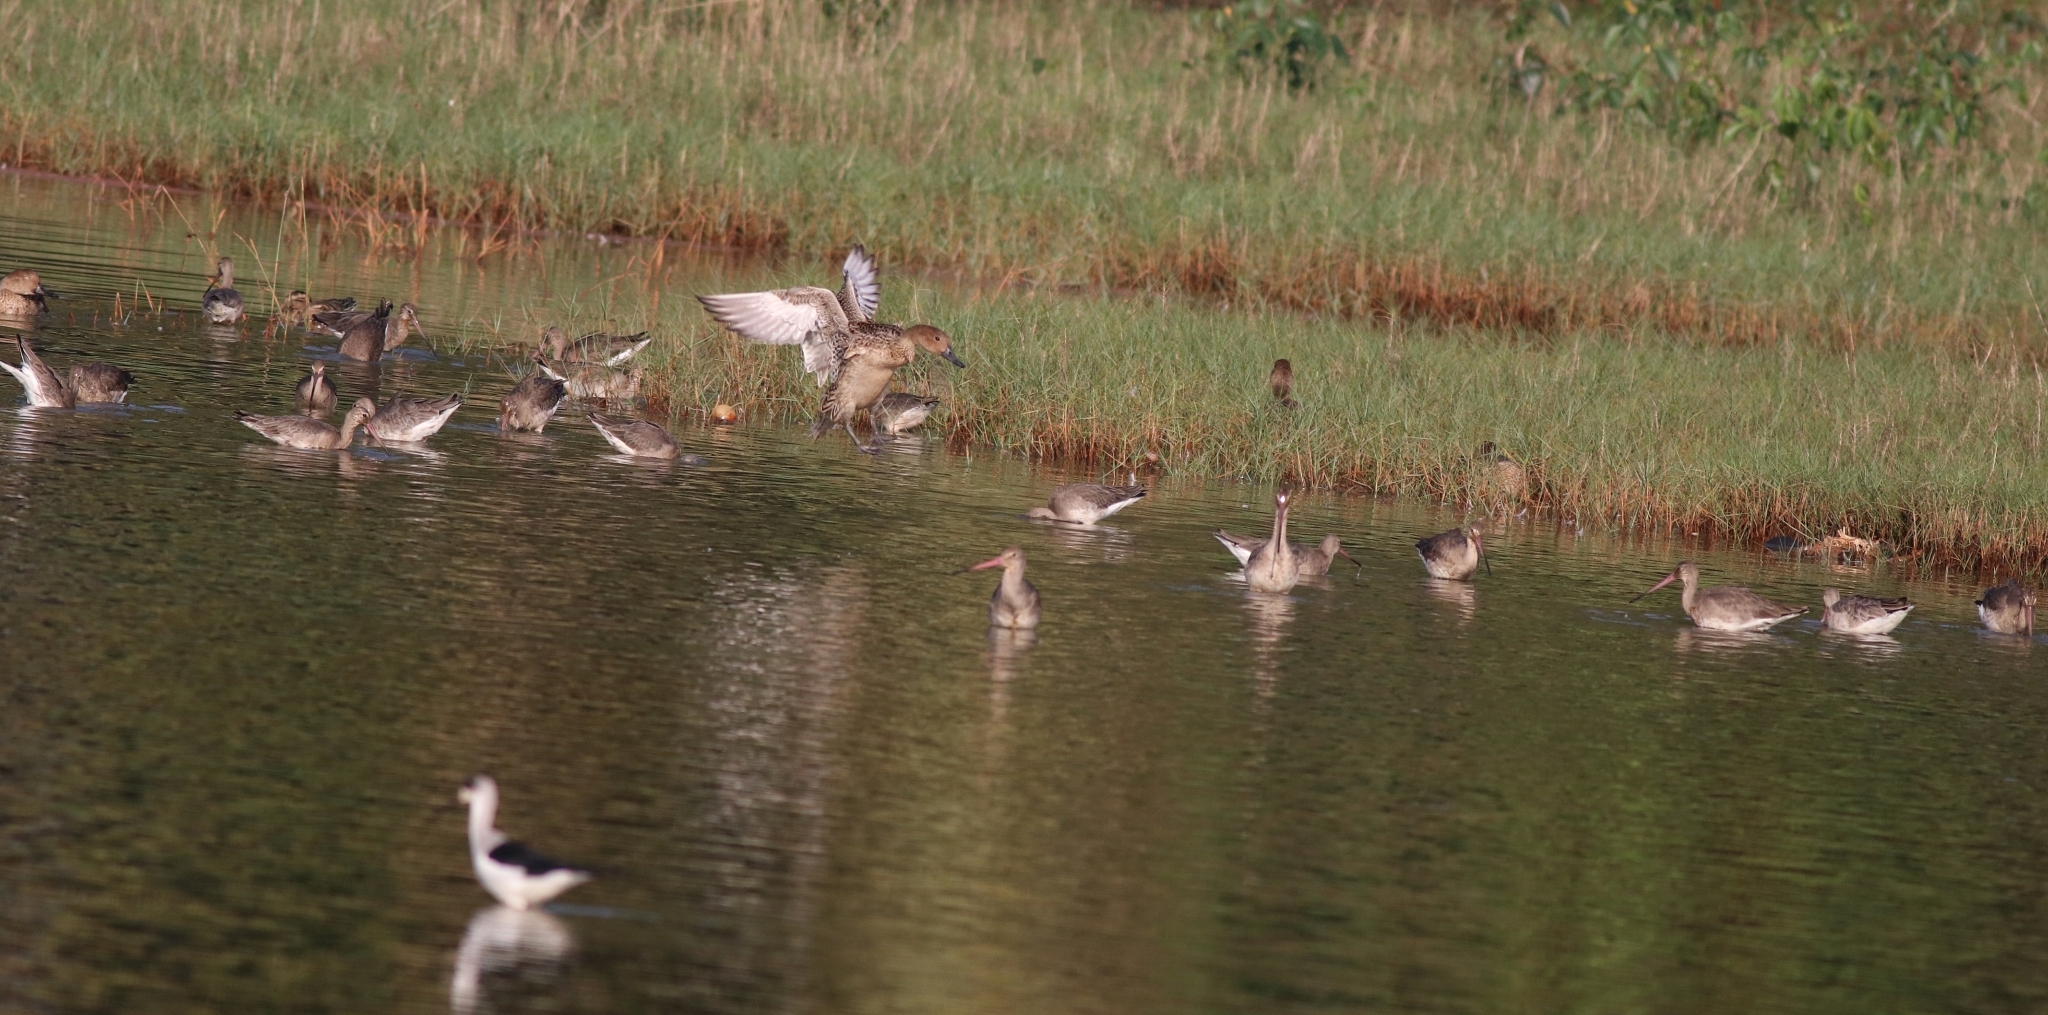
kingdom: Animalia
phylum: Chordata
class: Aves
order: Charadriiformes
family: Scolopacidae
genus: Limosa
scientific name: Limosa limosa
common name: Black-tailed godwit
